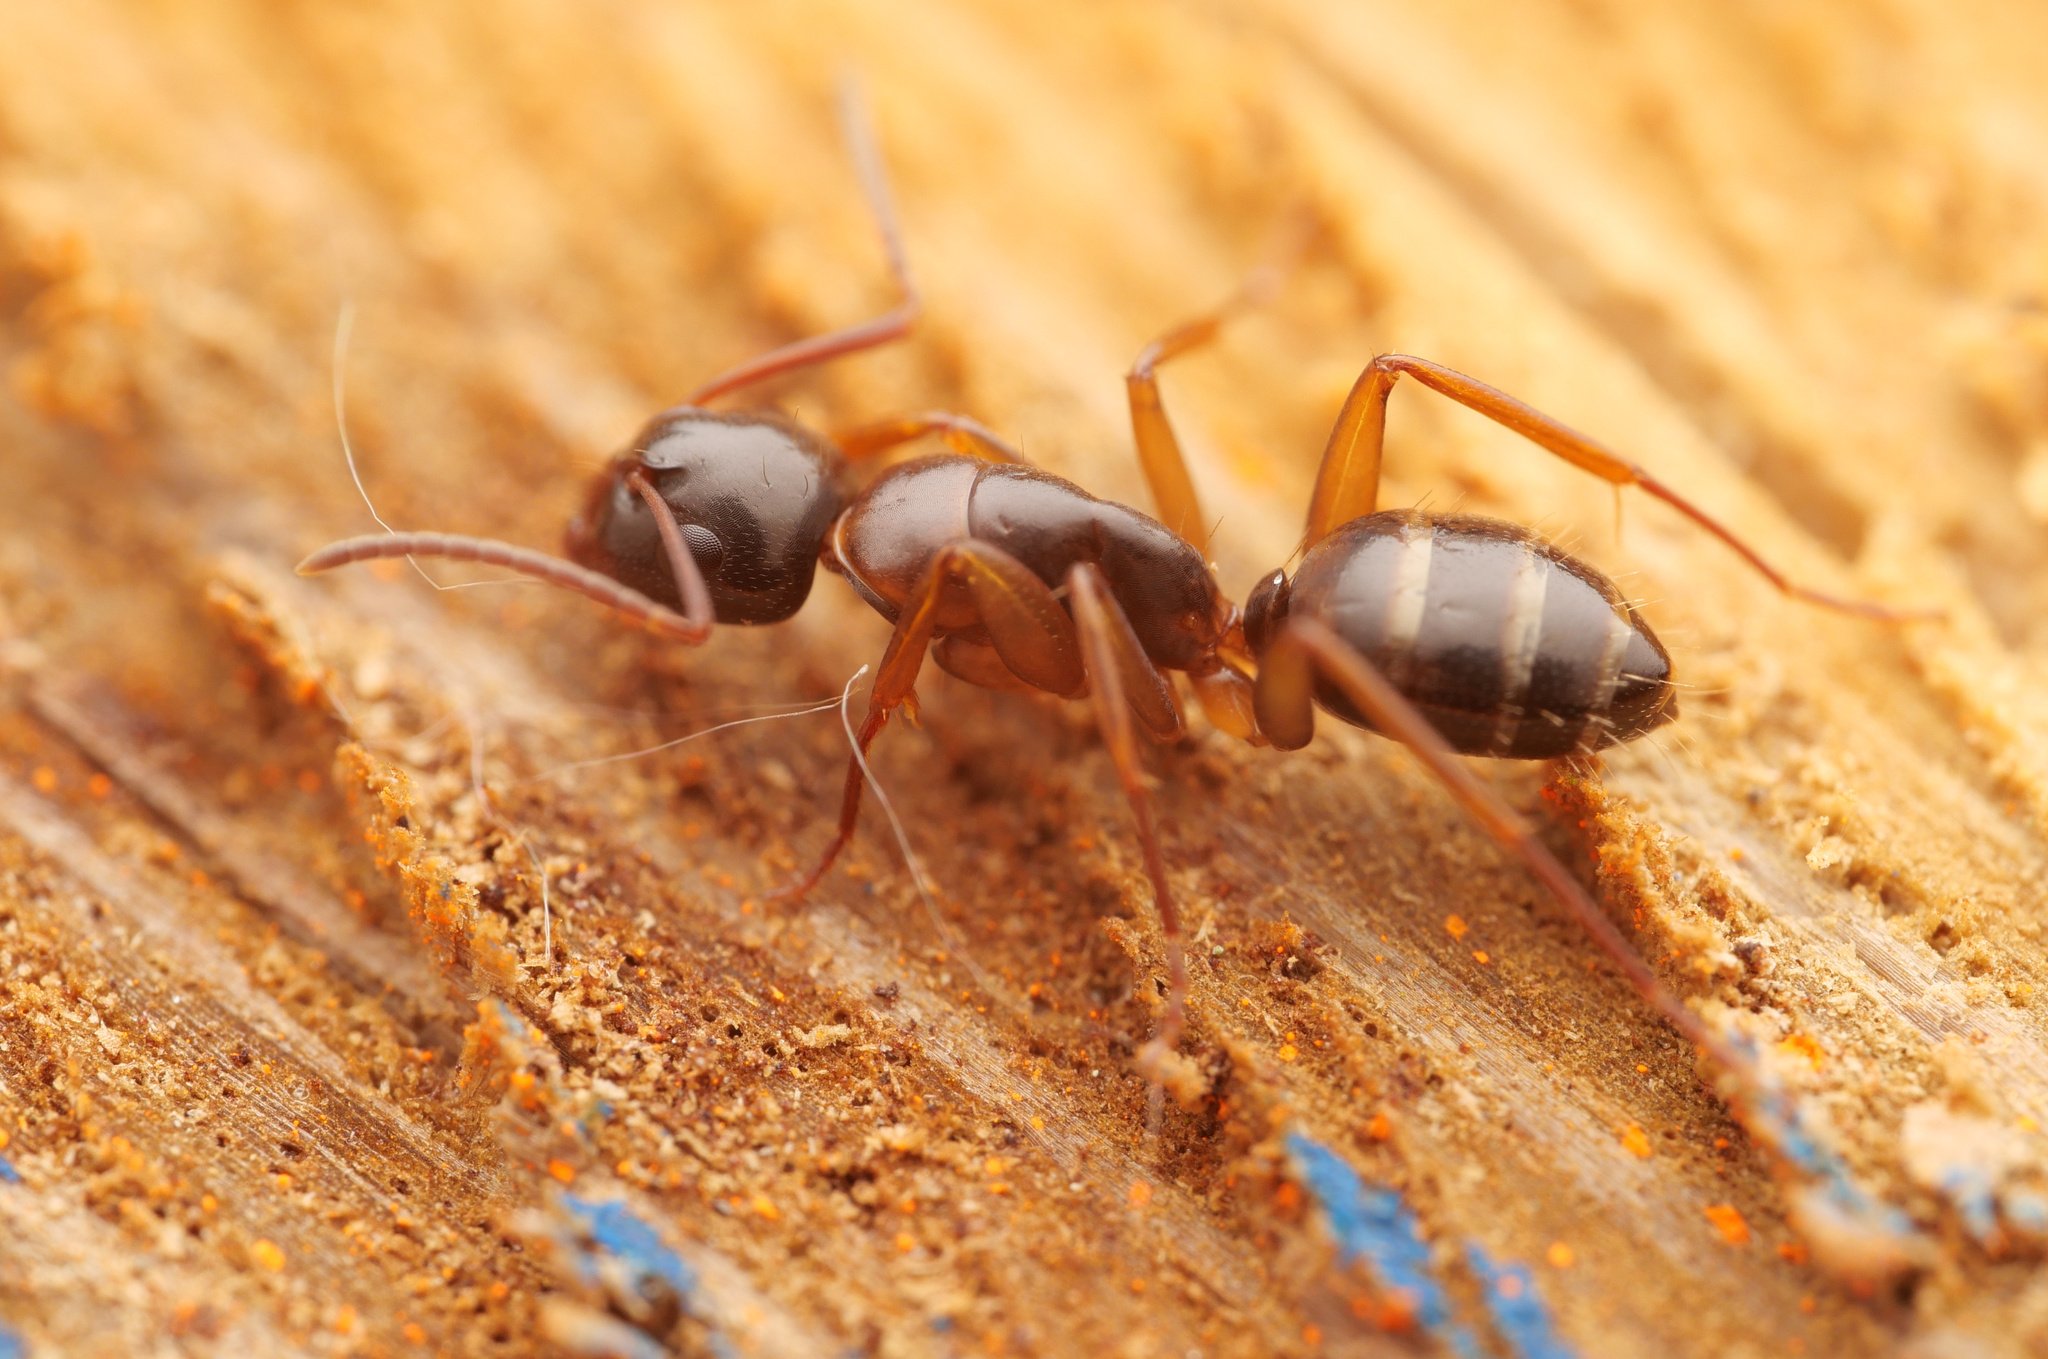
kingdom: Animalia
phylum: Arthropoda
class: Insecta
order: Hymenoptera
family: Formicidae
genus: Camponotus
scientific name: Camponotus fallax
